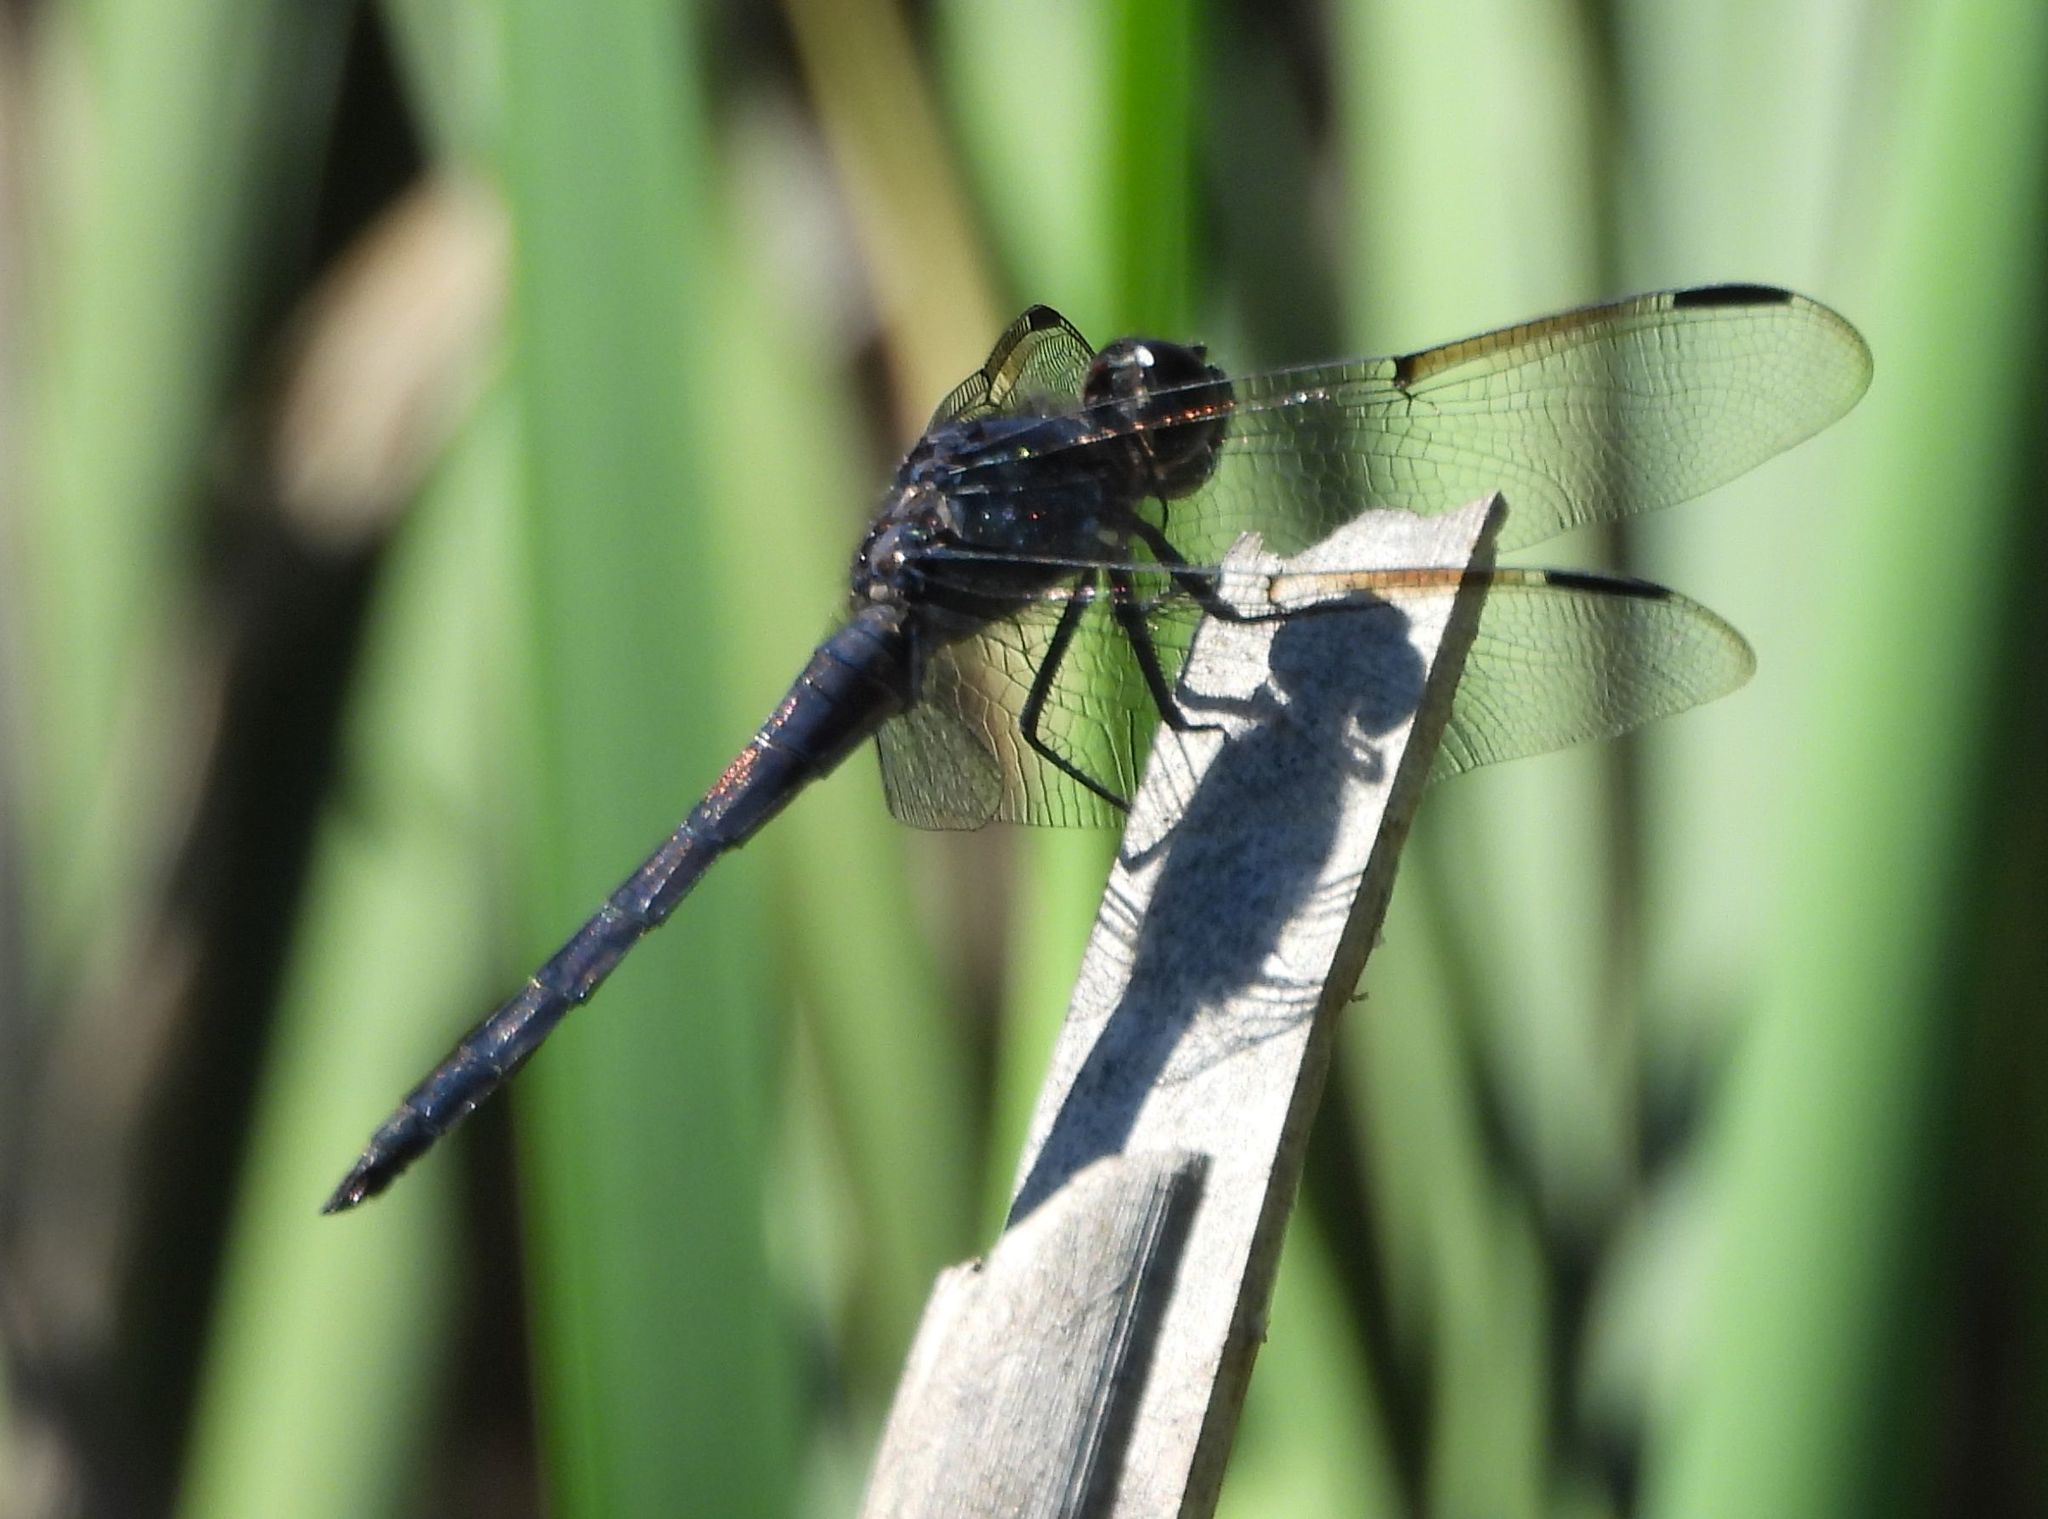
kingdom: Animalia
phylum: Arthropoda
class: Insecta
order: Odonata
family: Libellulidae
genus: Libellula
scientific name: Libellula incesta
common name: Slaty skimmer
